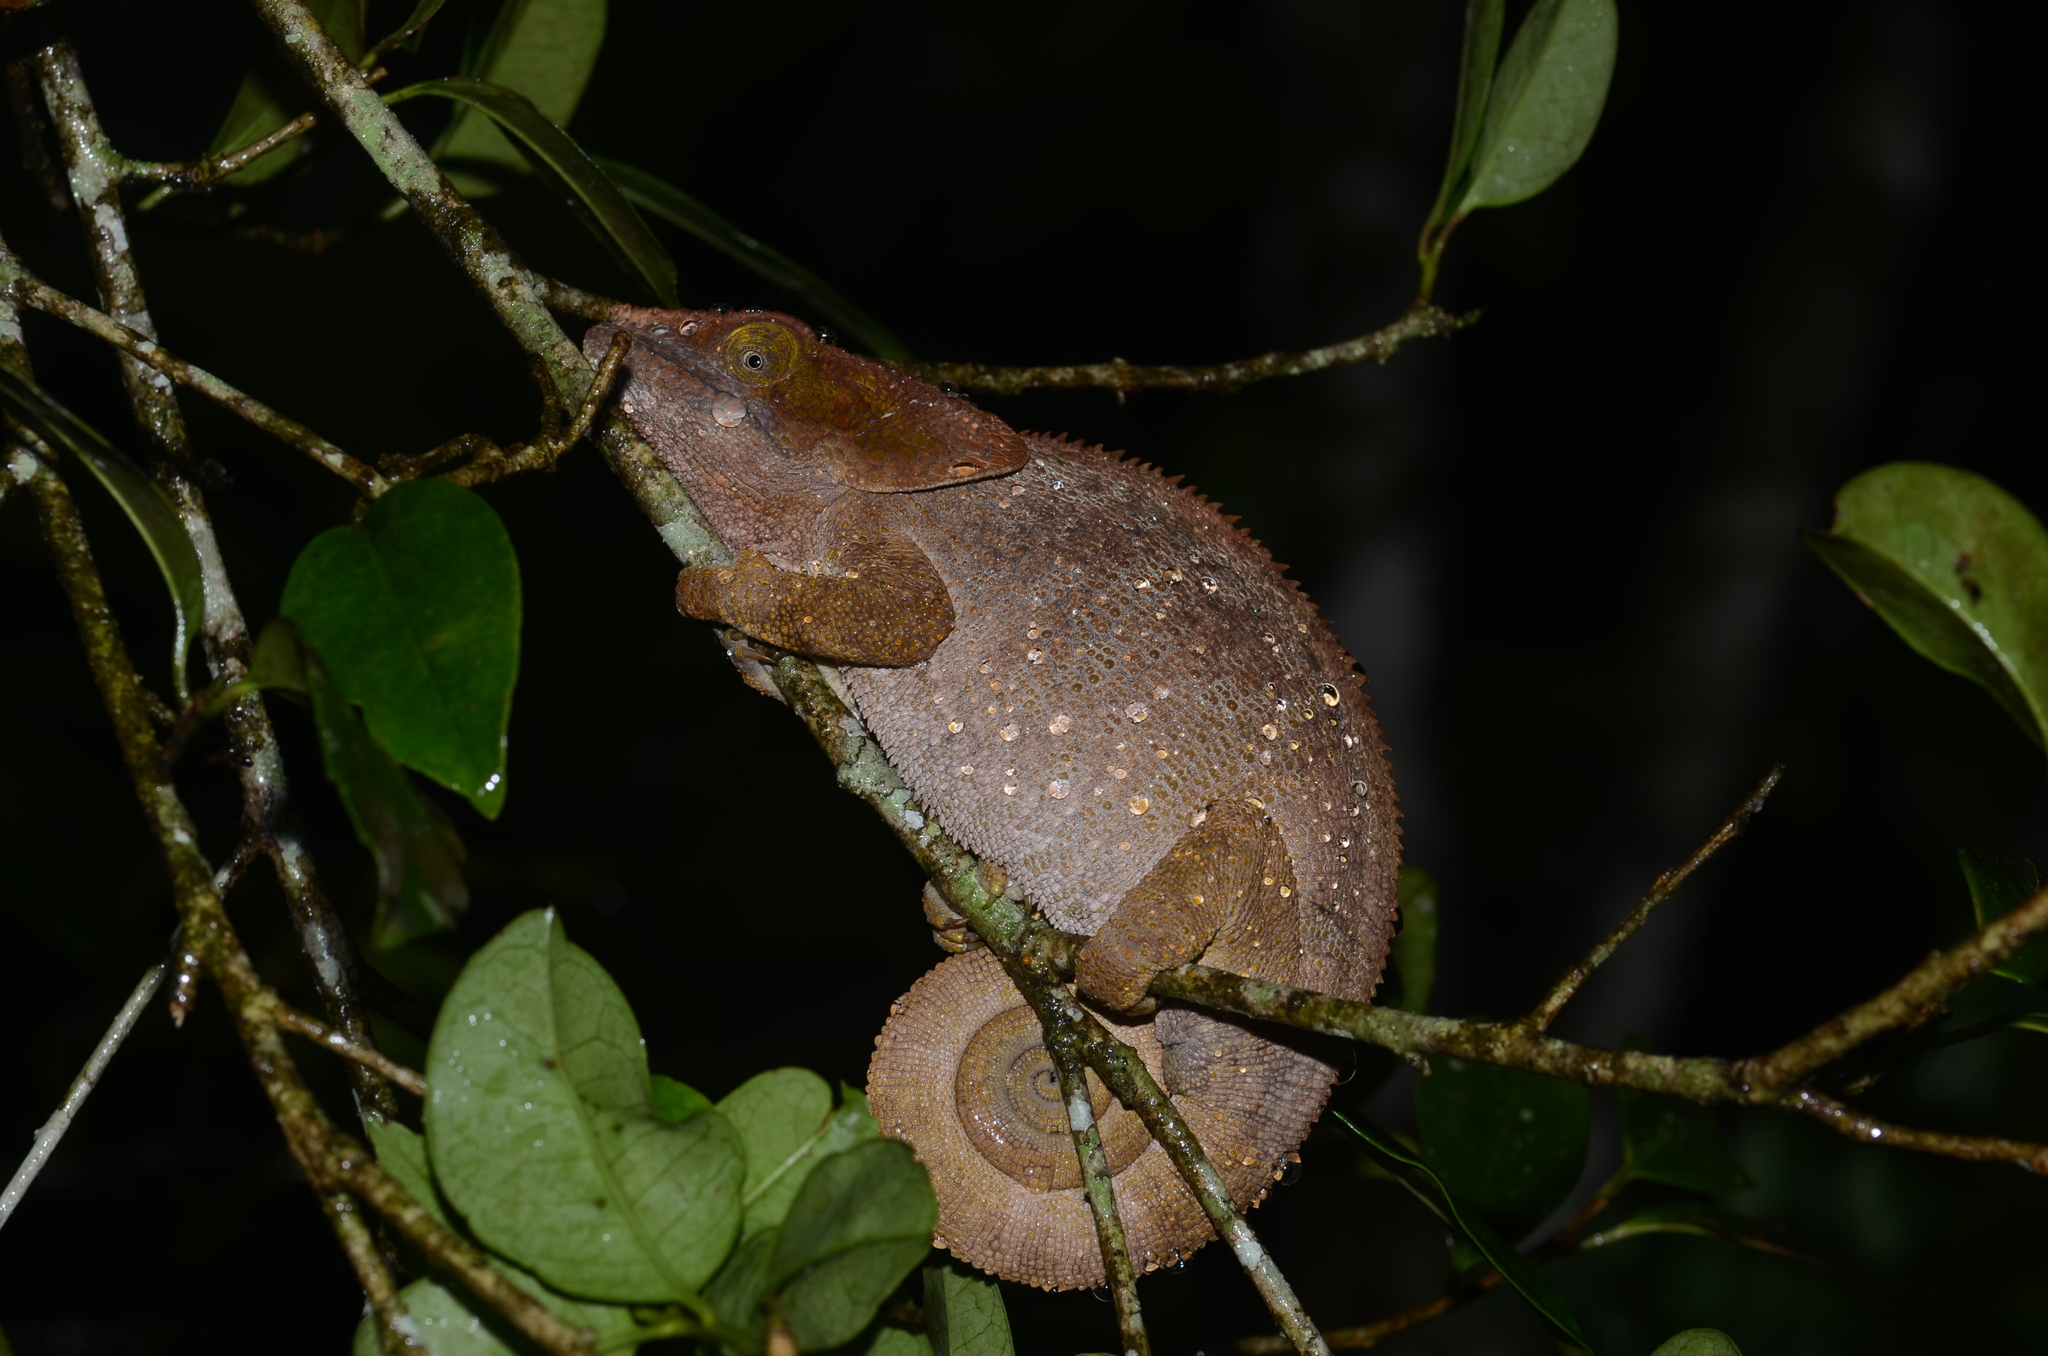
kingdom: Animalia
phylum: Chordata
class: Squamata
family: Chamaeleonidae
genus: Calumma
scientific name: Calumma brevicorne
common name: Short-horned chameleon
